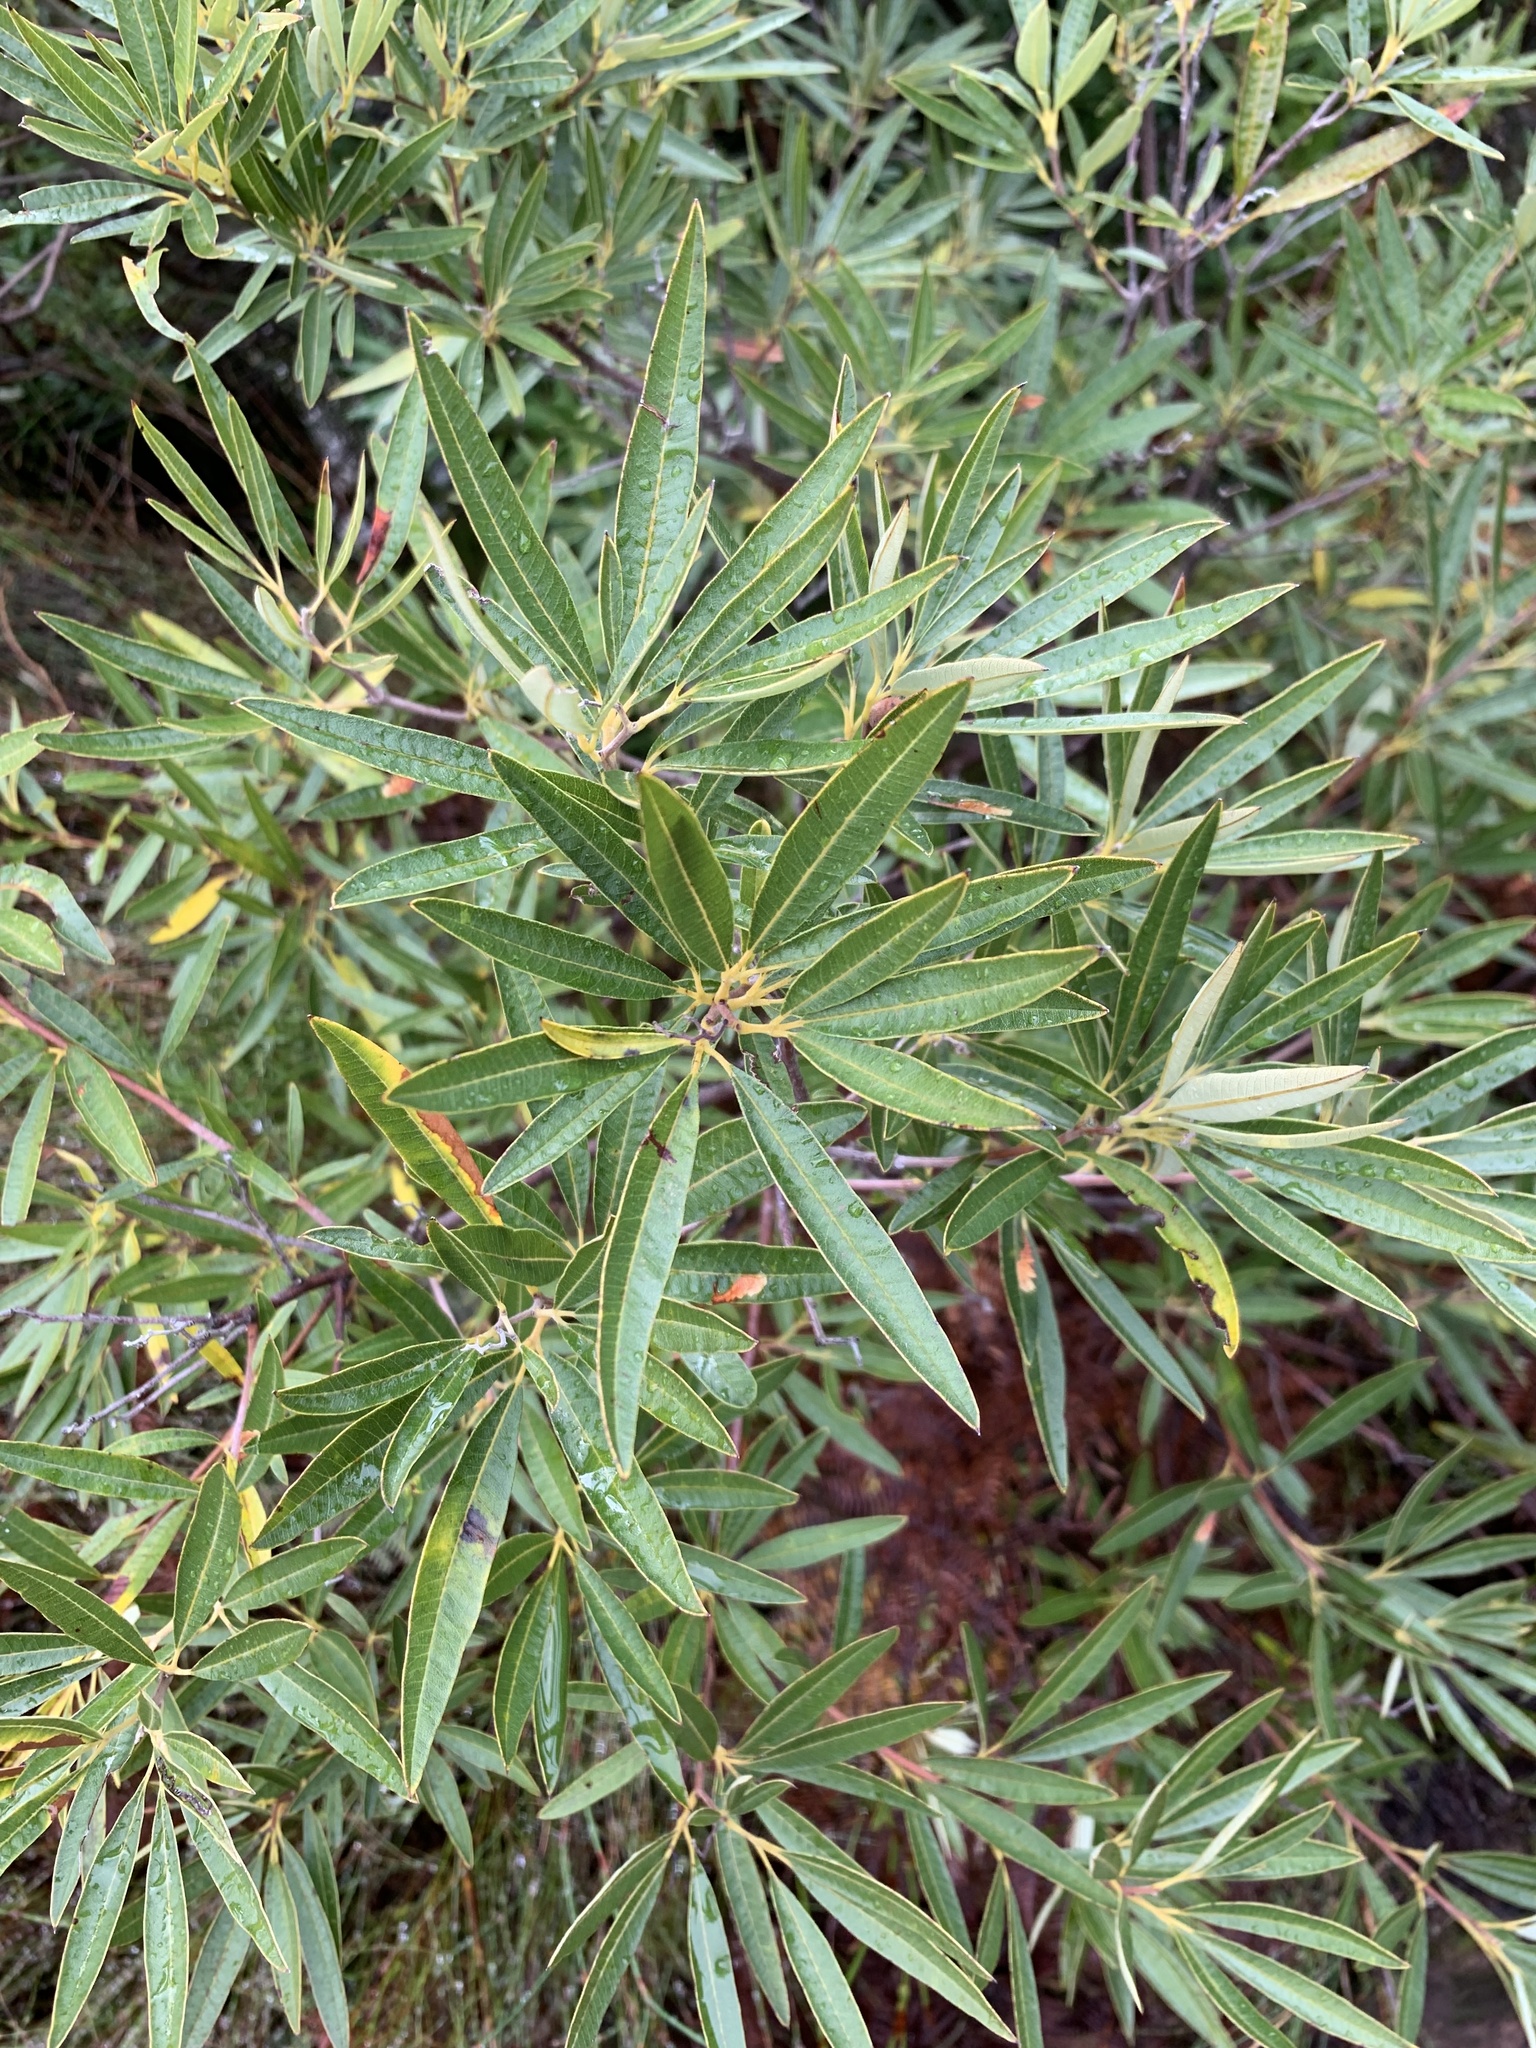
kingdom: Plantae
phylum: Tracheophyta
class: Magnoliopsida
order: Sapindales
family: Anacardiaceae
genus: Searsia
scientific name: Searsia angustifolia
